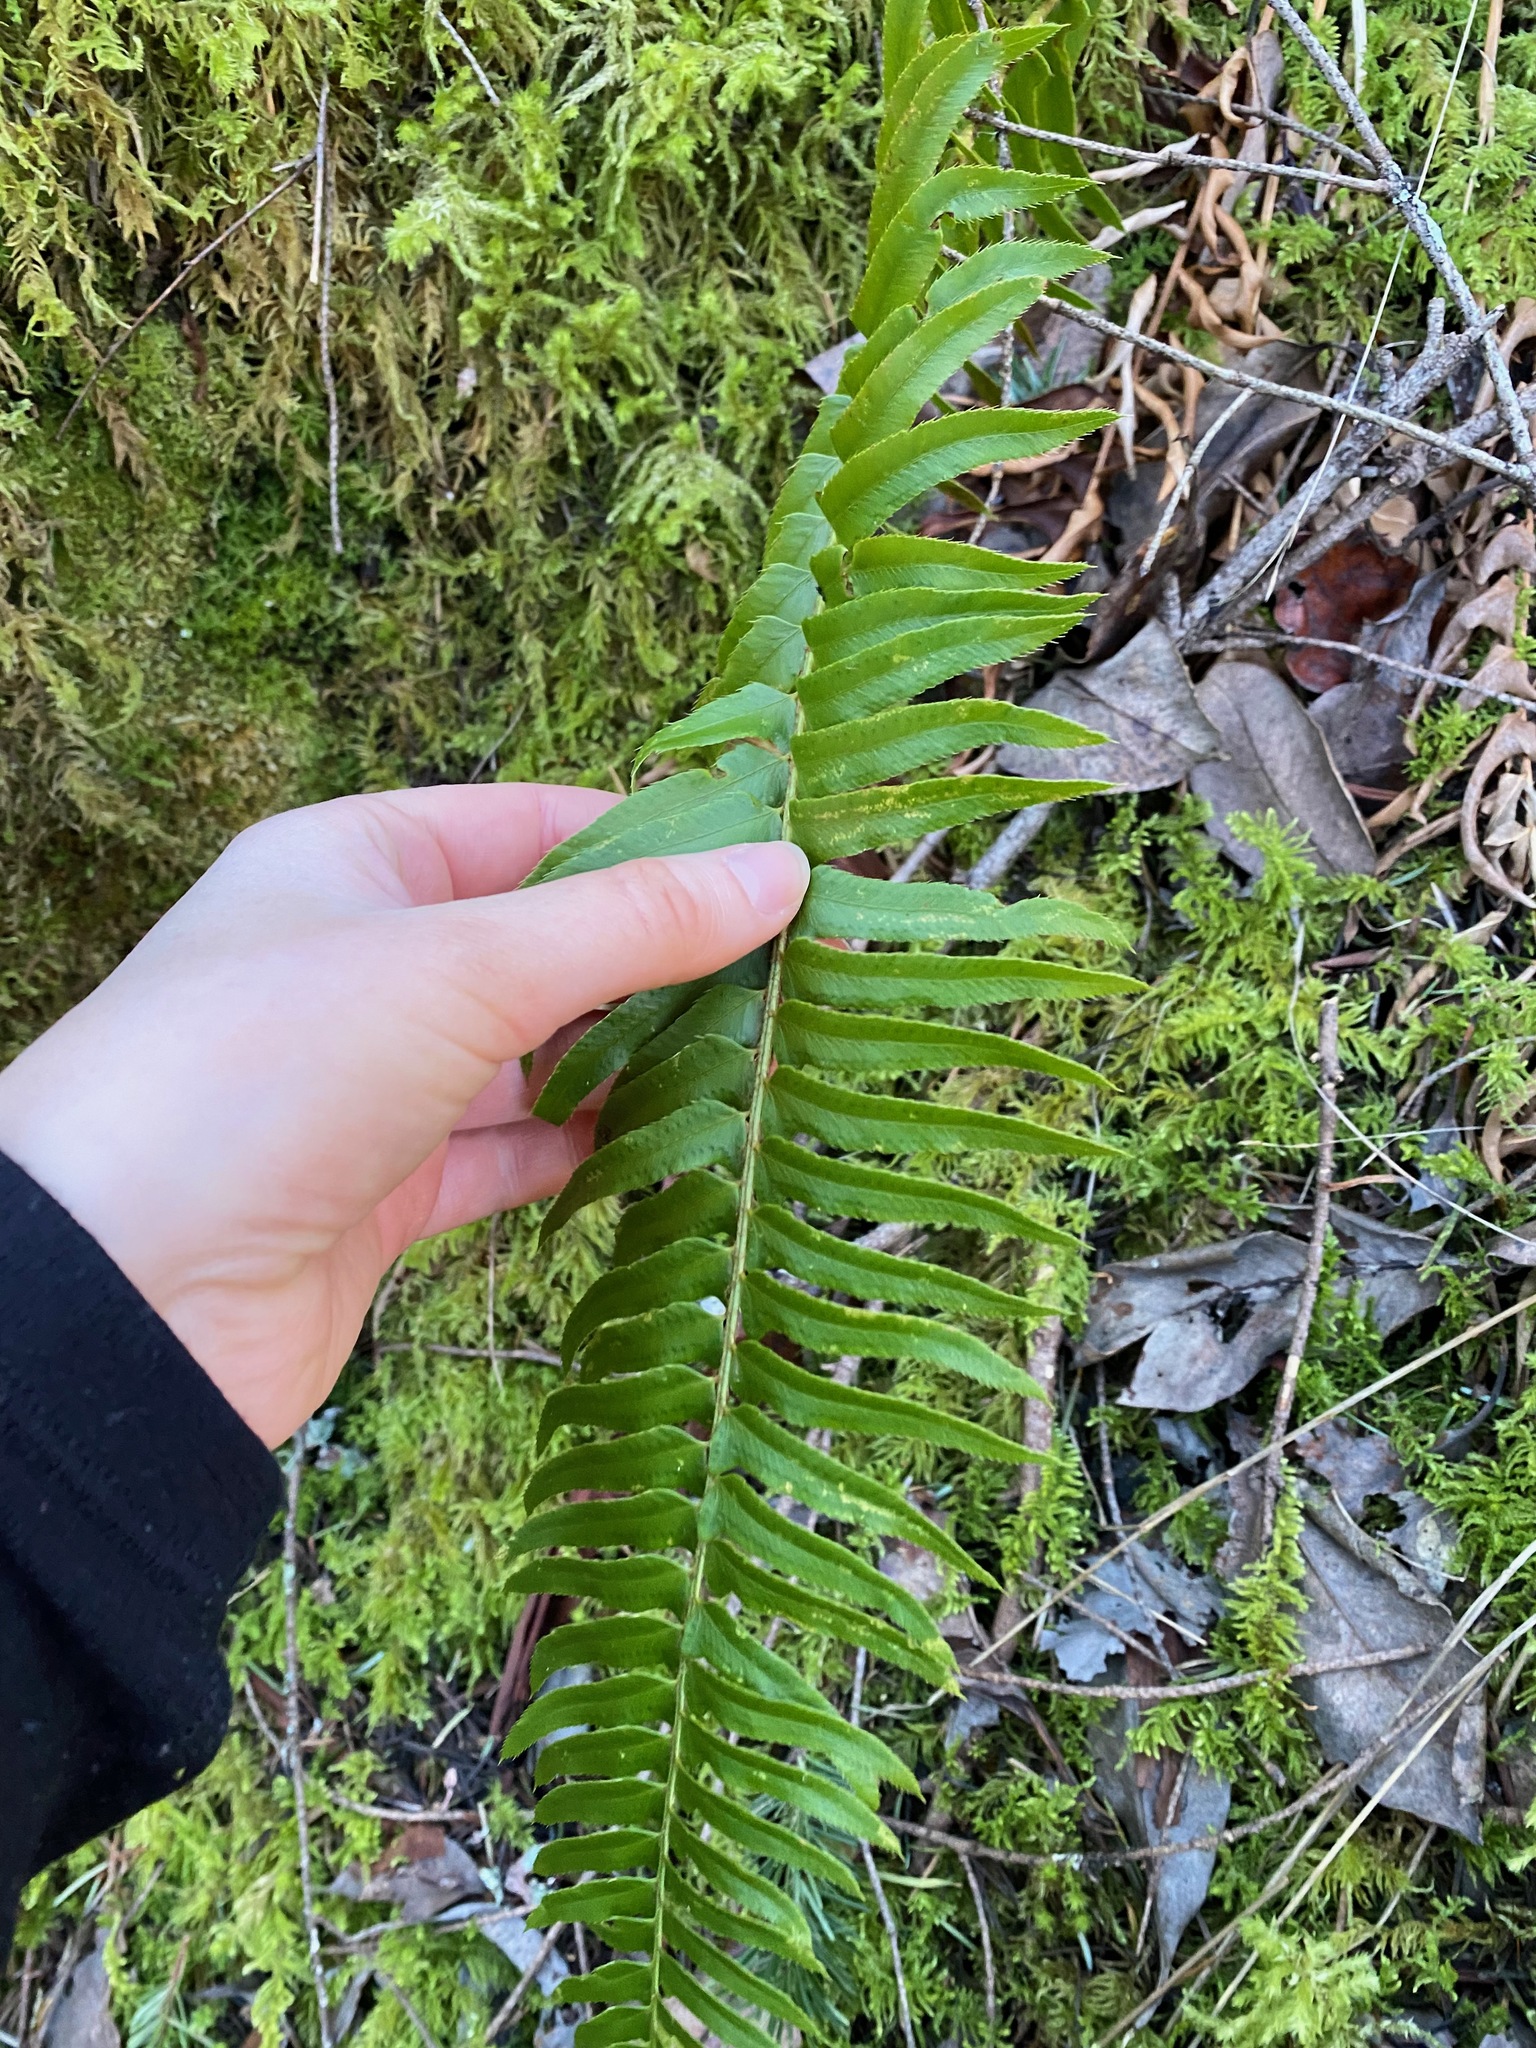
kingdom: Plantae
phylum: Tracheophyta
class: Polypodiopsida
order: Polypodiales
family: Dryopteridaceae
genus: Polystichum
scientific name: Polystichum munitum
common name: Western sword-fern
